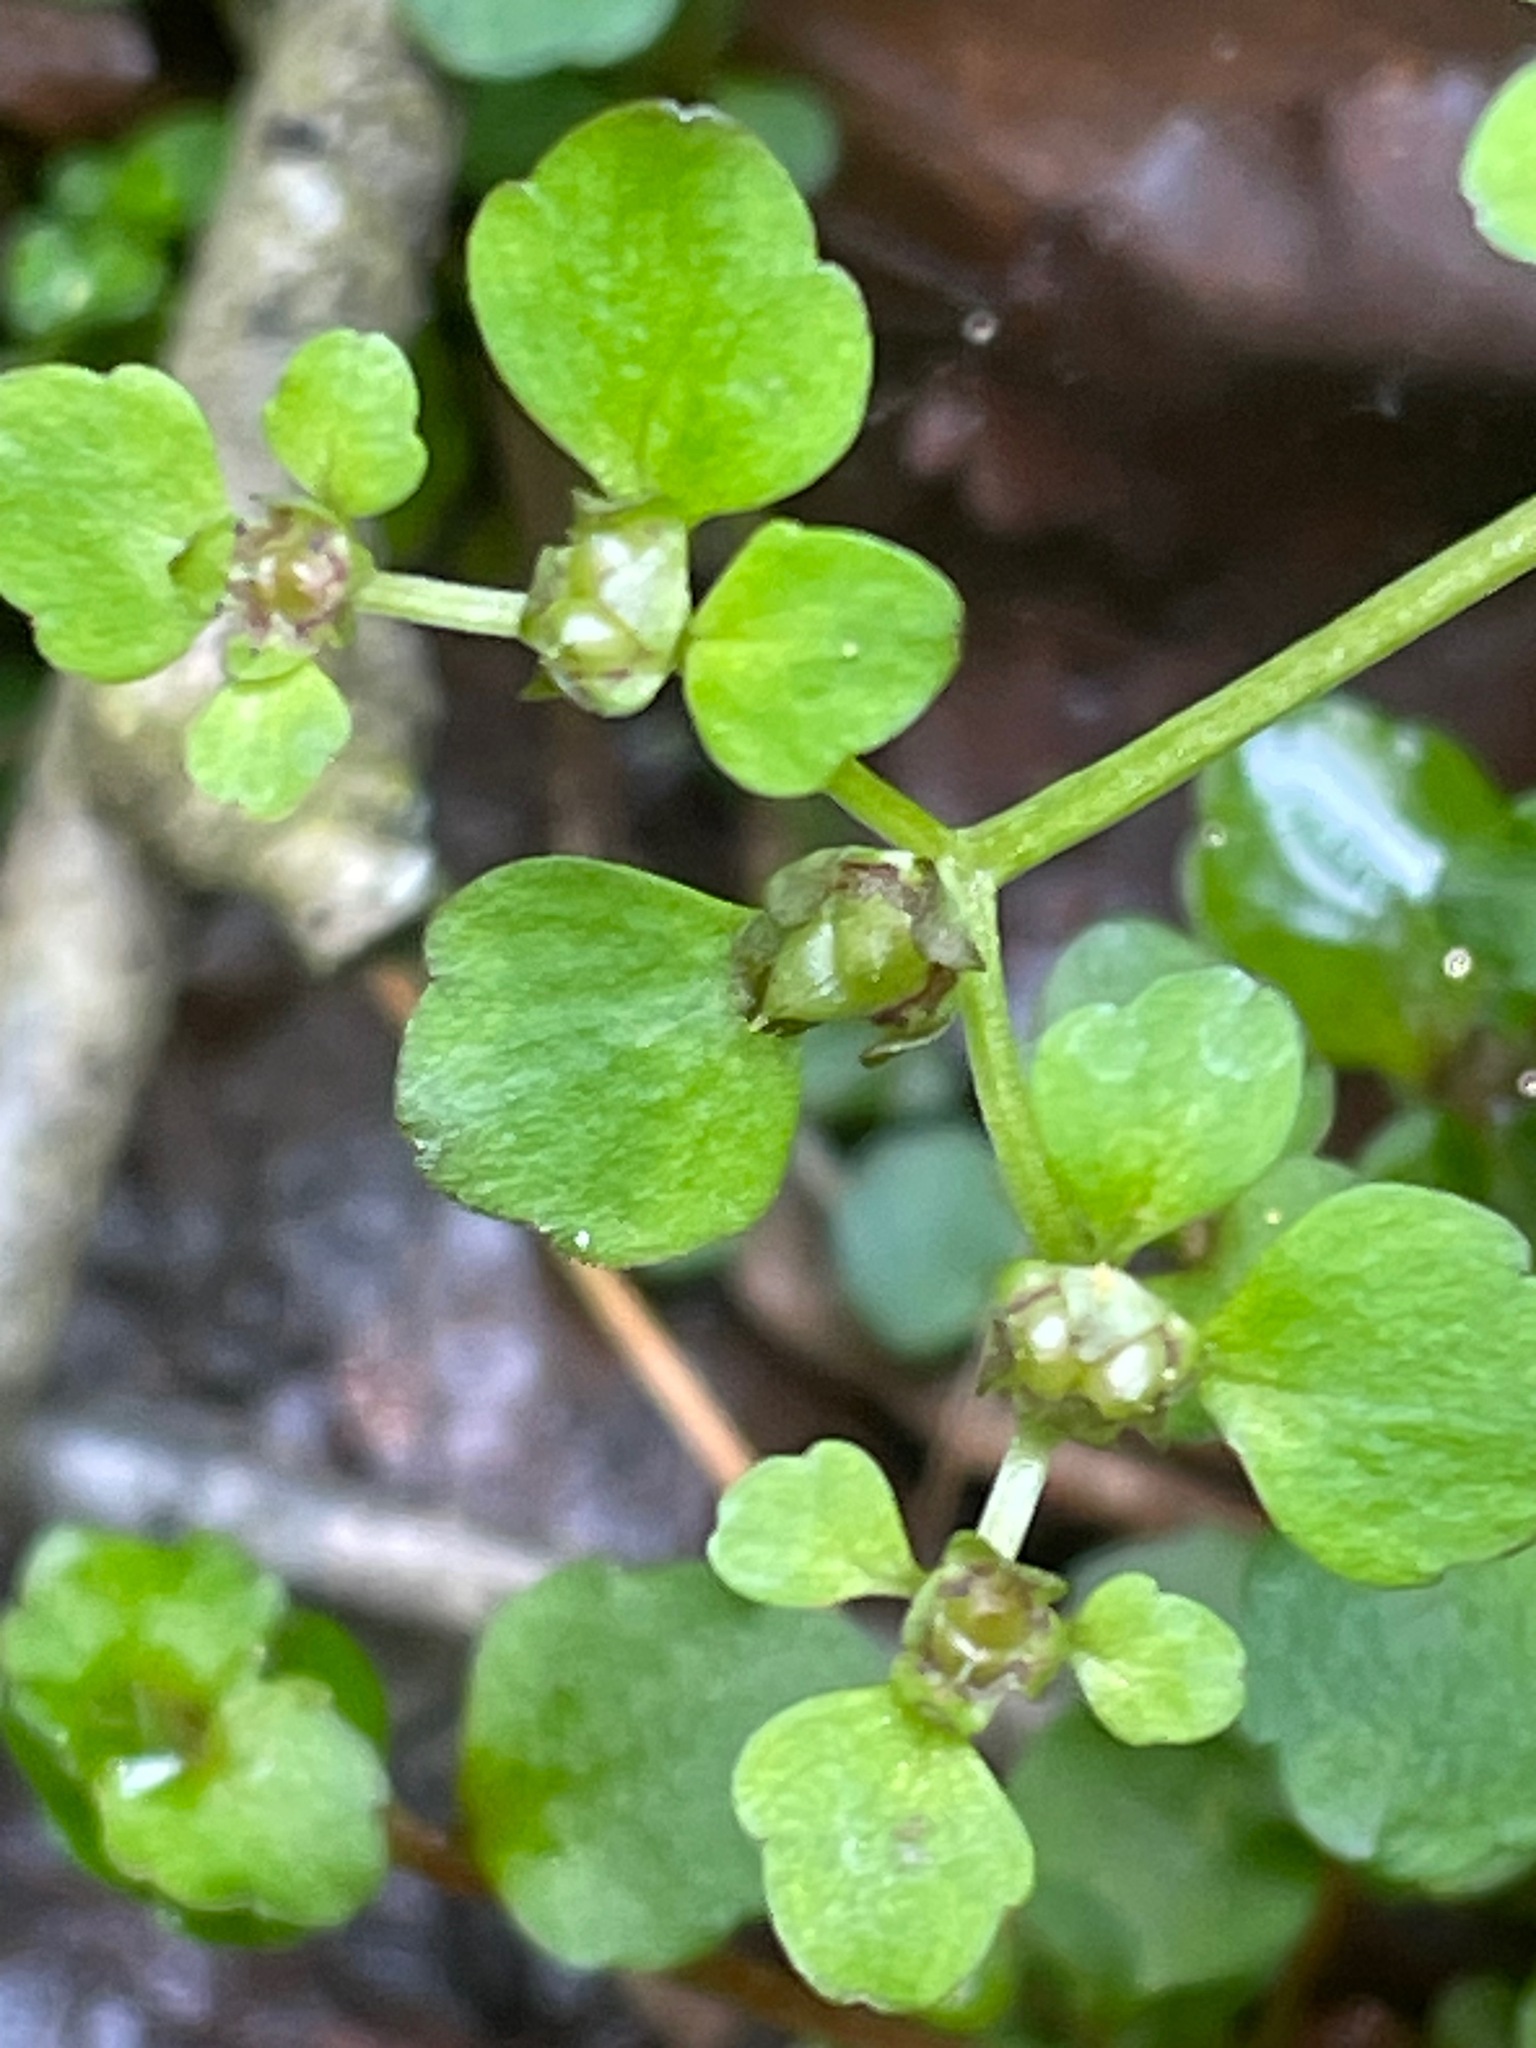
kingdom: Plantae
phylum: Tracheophyta
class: Magnoliopsida
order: Saxifragales
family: Saxifragaceae
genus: Chrysosplenium
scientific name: Chrysosplenium americanum
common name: American golden-saxifrage
